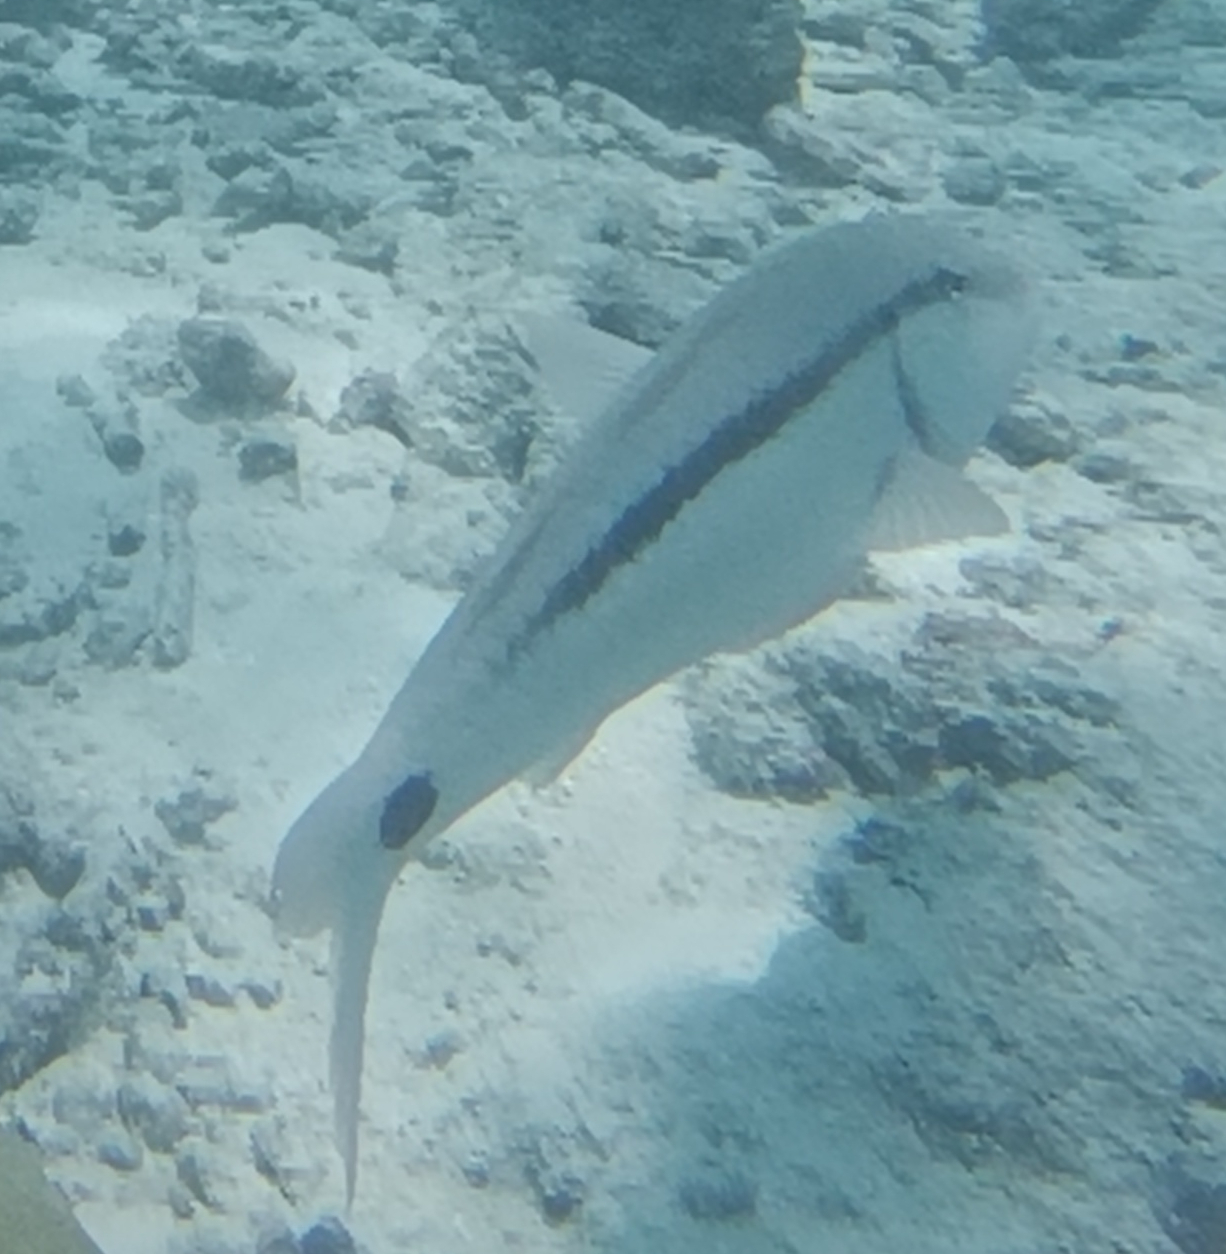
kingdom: Animalia
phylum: Chordata
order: Perciformes
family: Mullidae
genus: Parupeneus
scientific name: Parupeneus barberinus
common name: Dash-and-dot goatfish
